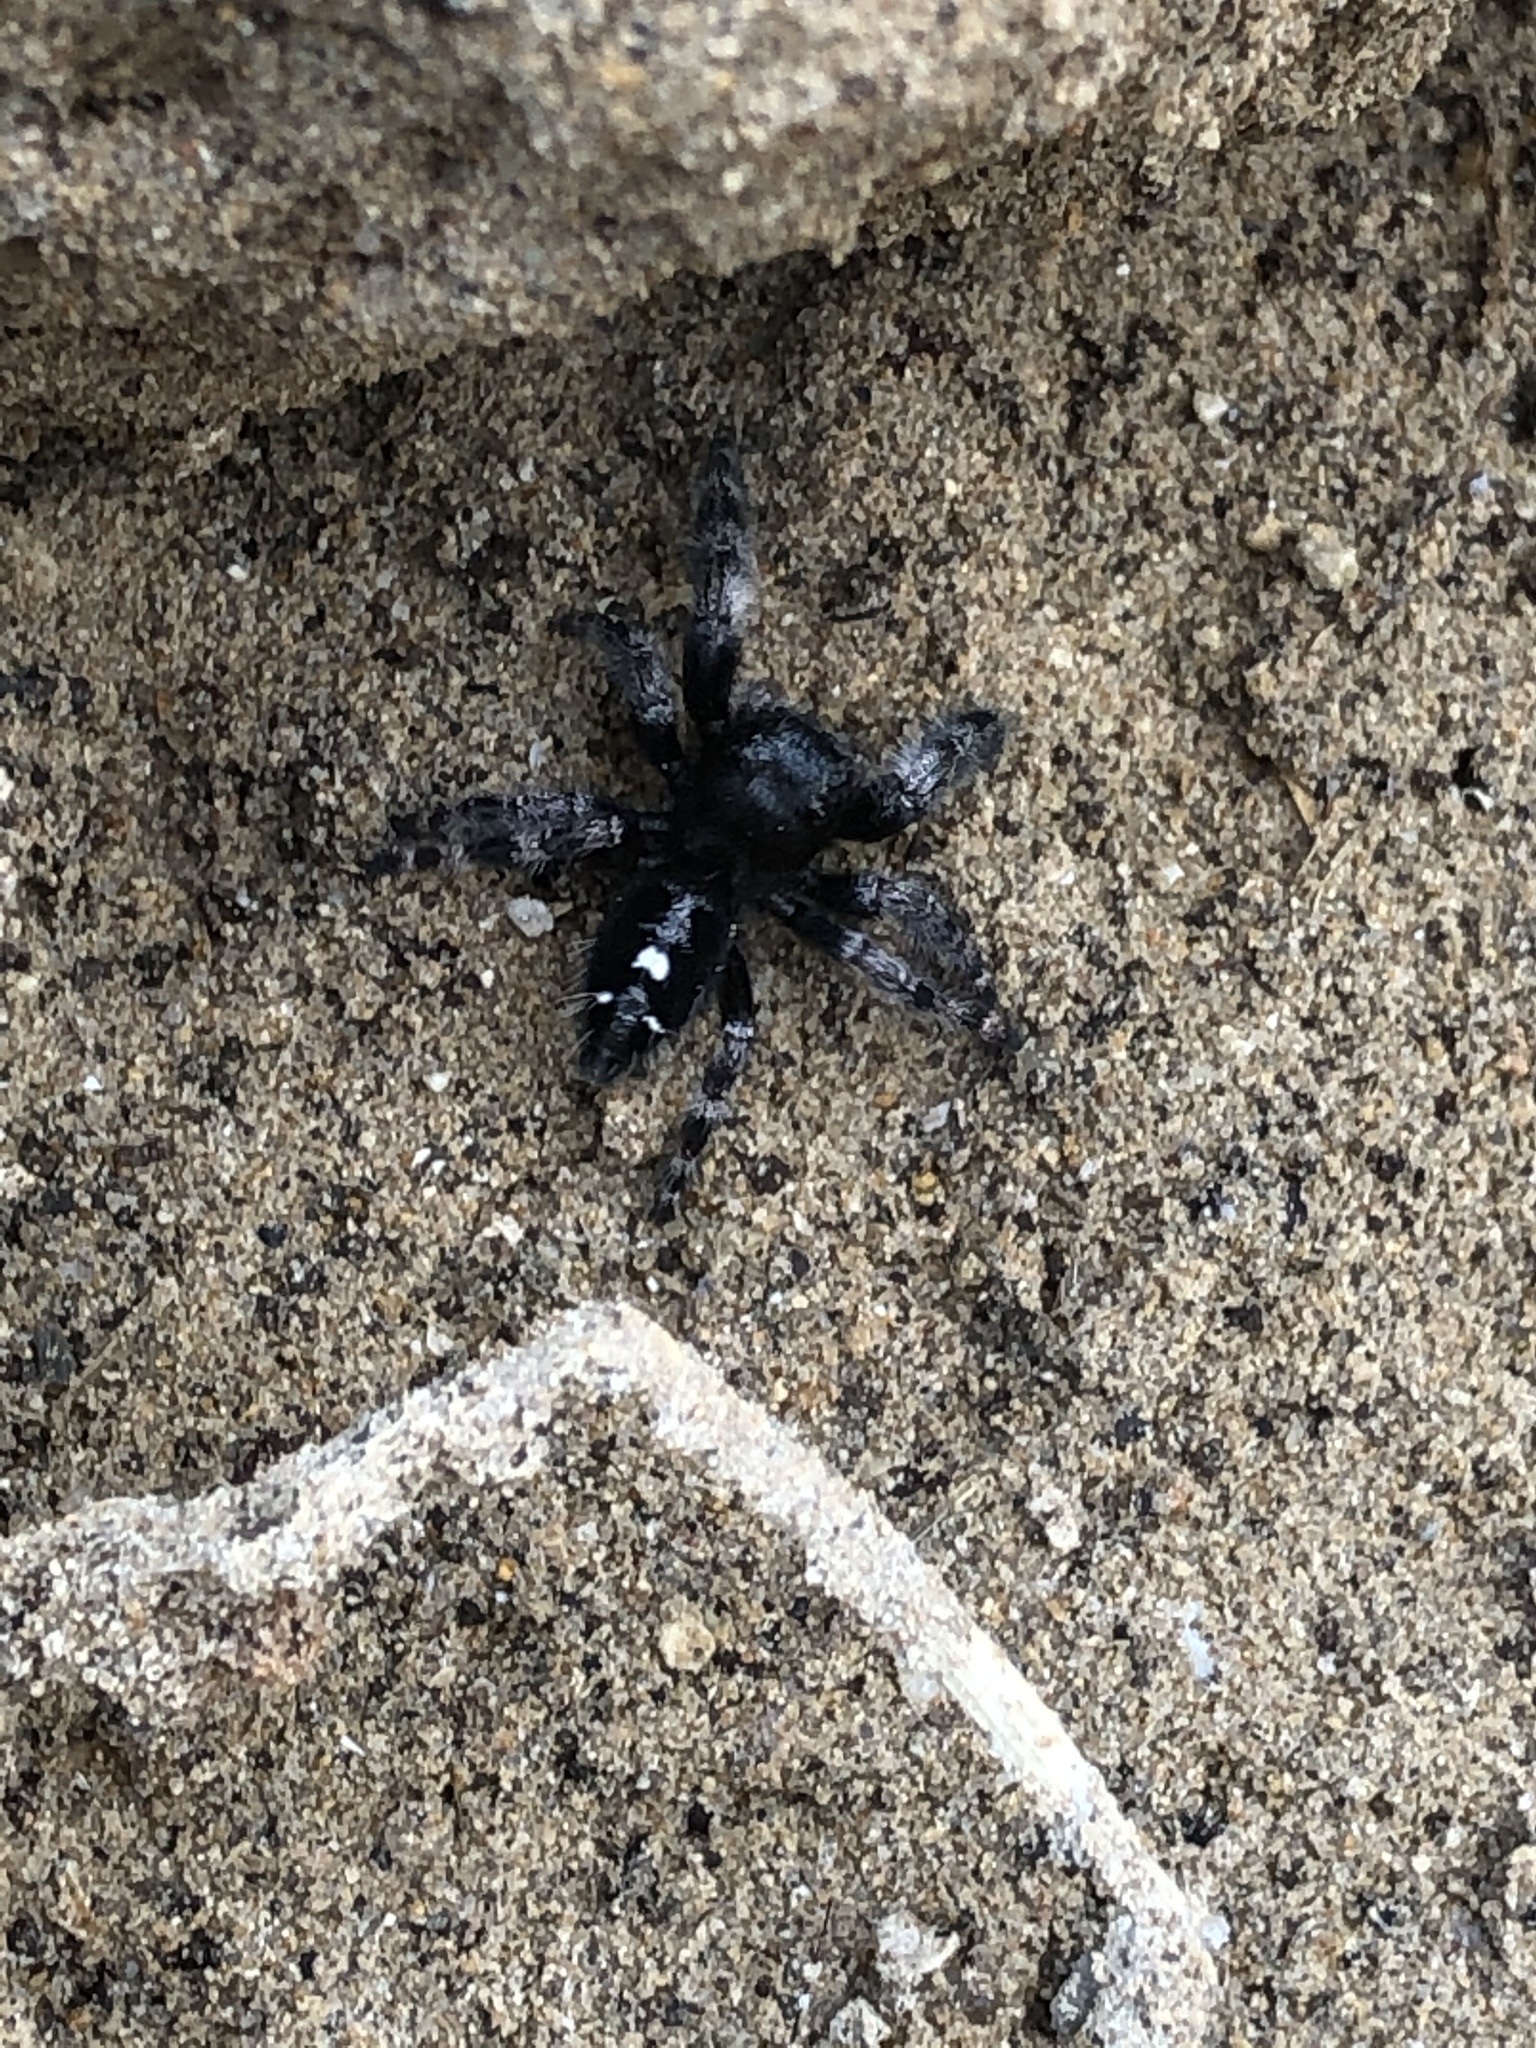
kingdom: Animalia
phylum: Arthropoda
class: Arachnida
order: Araneae
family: Salticidae
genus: Phidippus
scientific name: Phidippus audax
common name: Bold jumper
